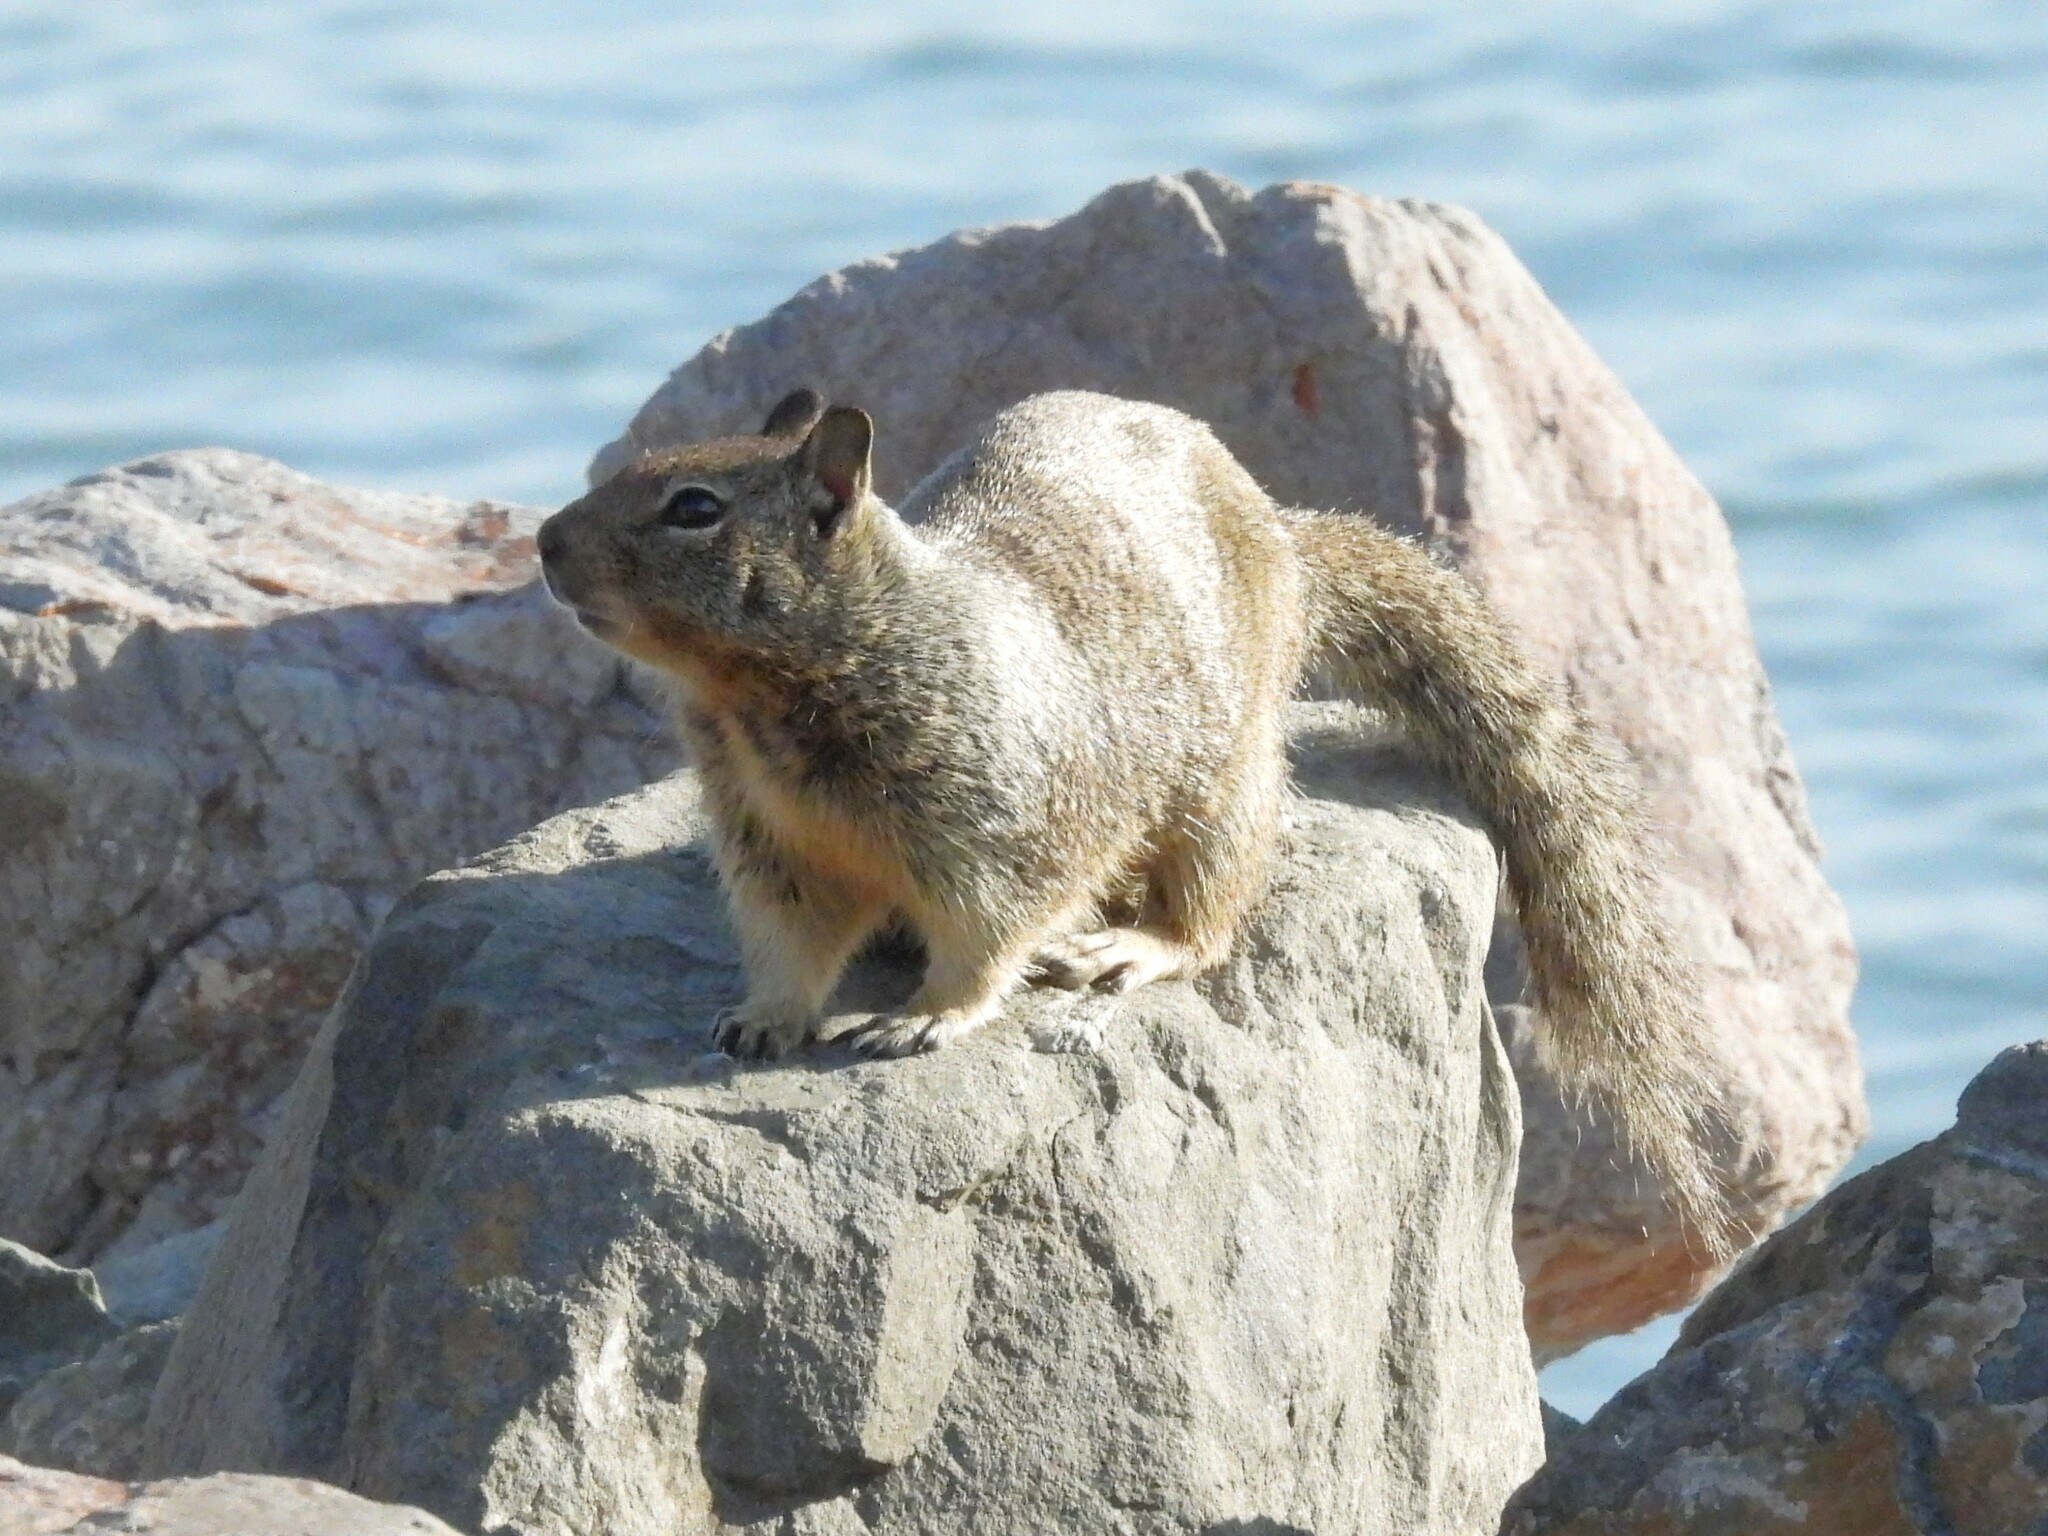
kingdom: Animalia
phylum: Chordata
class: Mammalia
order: Rodentia
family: Sciuridae
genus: Otospermophilus
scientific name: Otospermophilus beecheyi
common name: California ground squirrel
